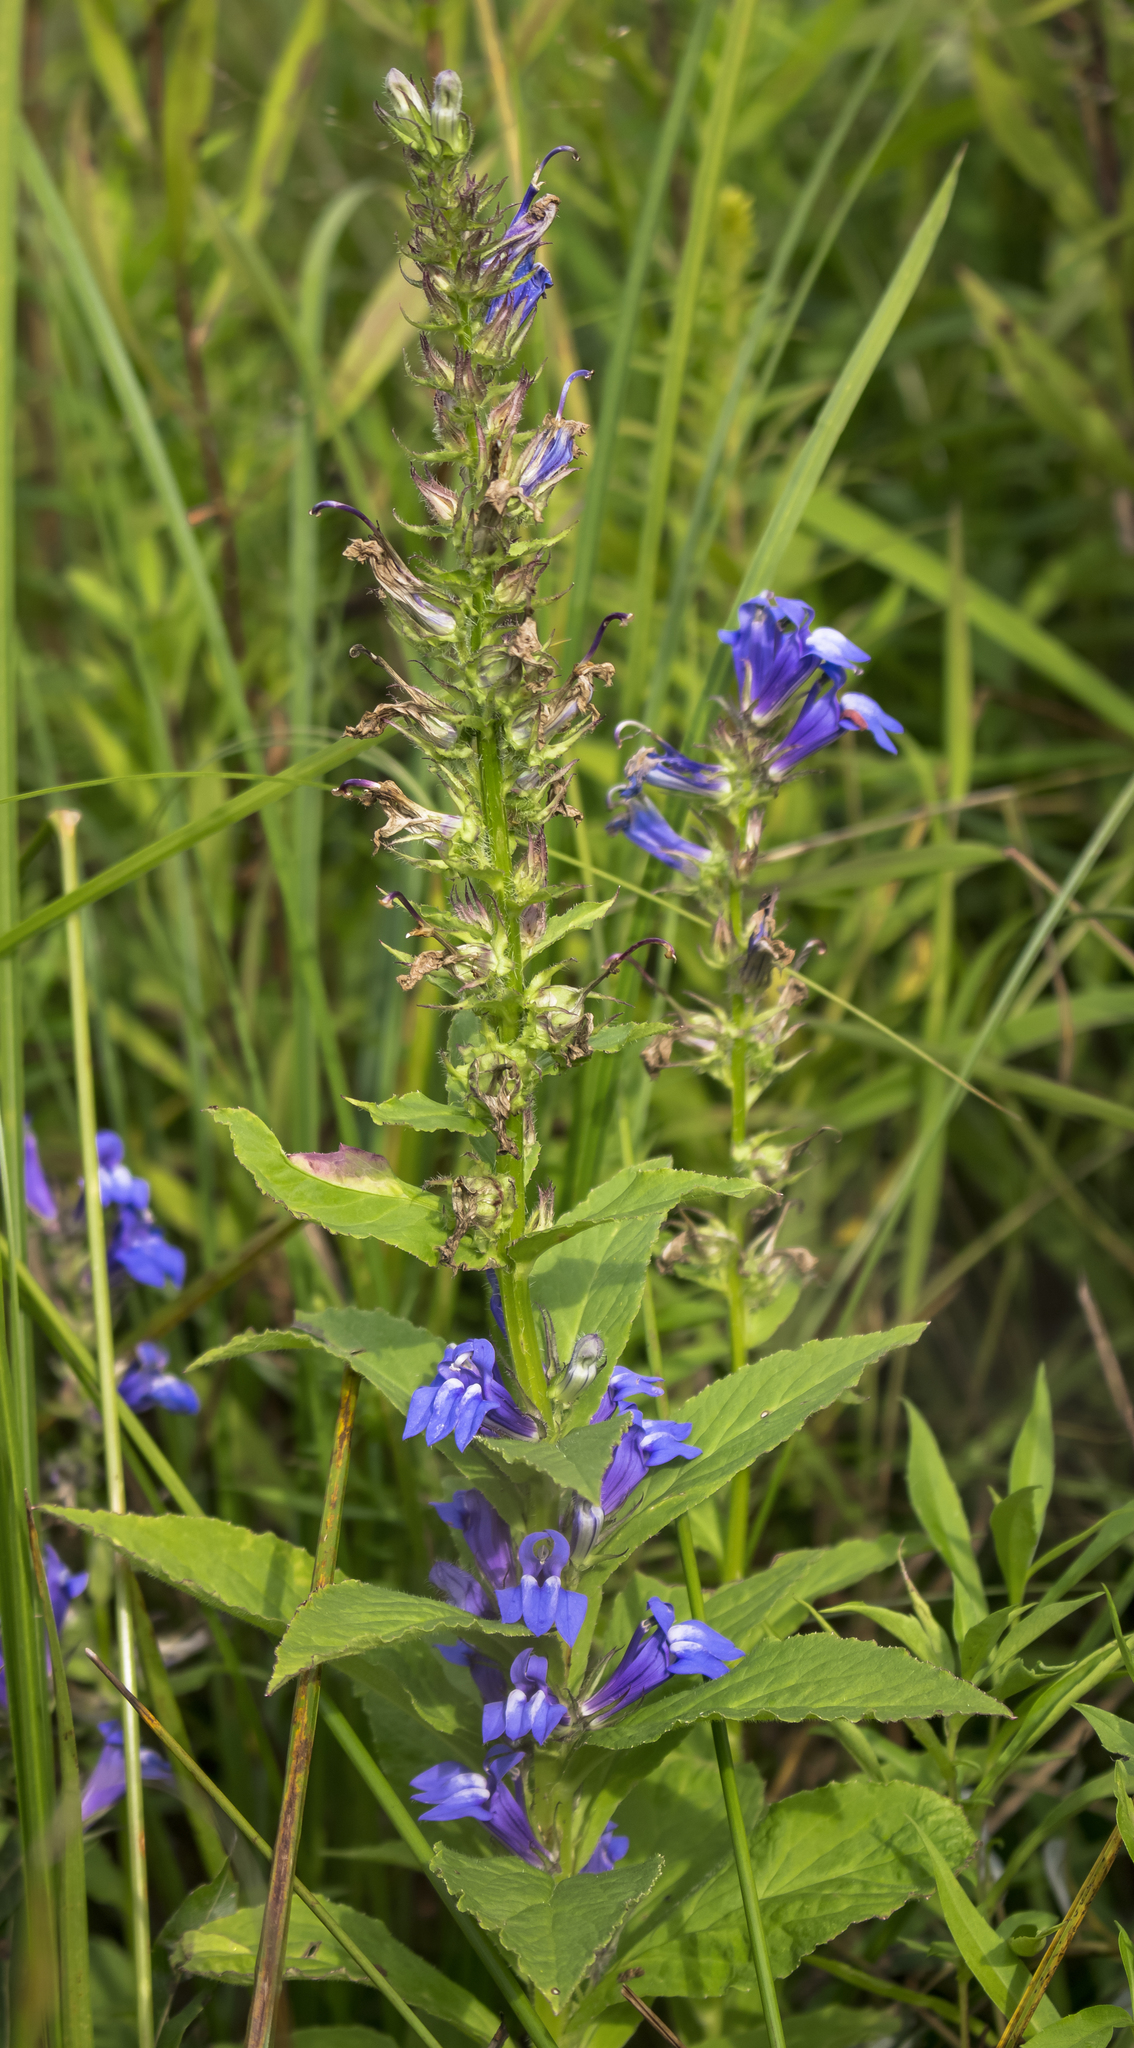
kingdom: Plantae
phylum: Tracheophyta
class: Magnoliopsida
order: Asterales
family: Campanulaceae
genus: Lobelia
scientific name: Lobelia siphilitica
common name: Great lobelia
